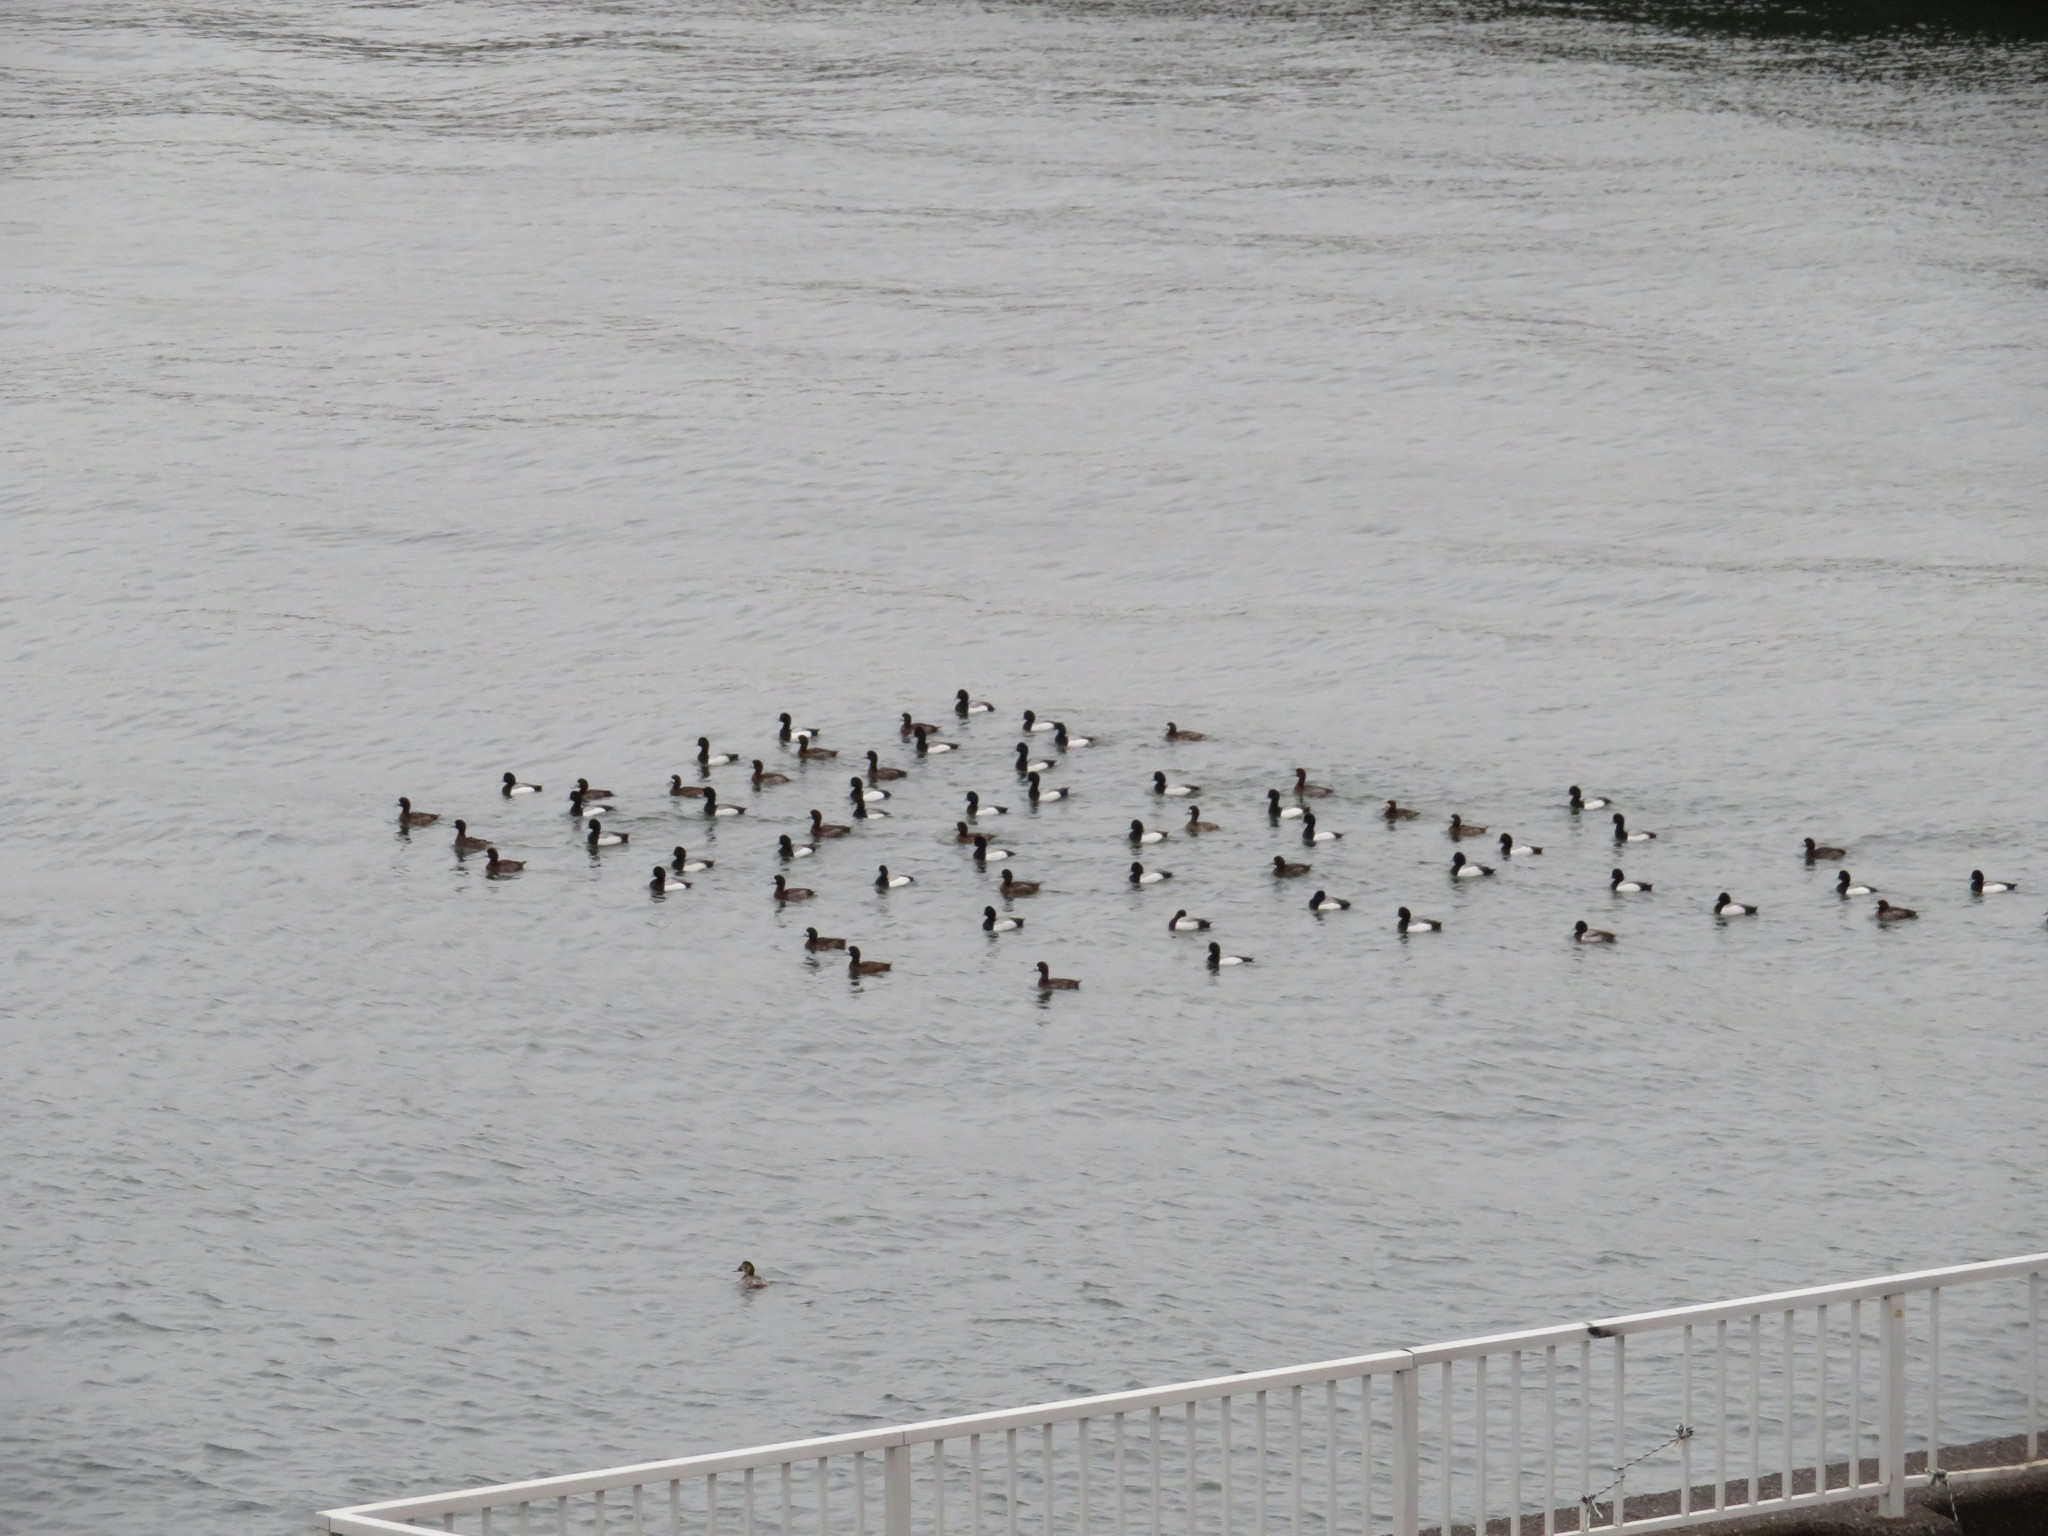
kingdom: Animalia
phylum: Chordata
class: Aves
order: Anseriformes
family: Anatidae
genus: Aythya
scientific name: Aythya marila
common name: Greater scaup
